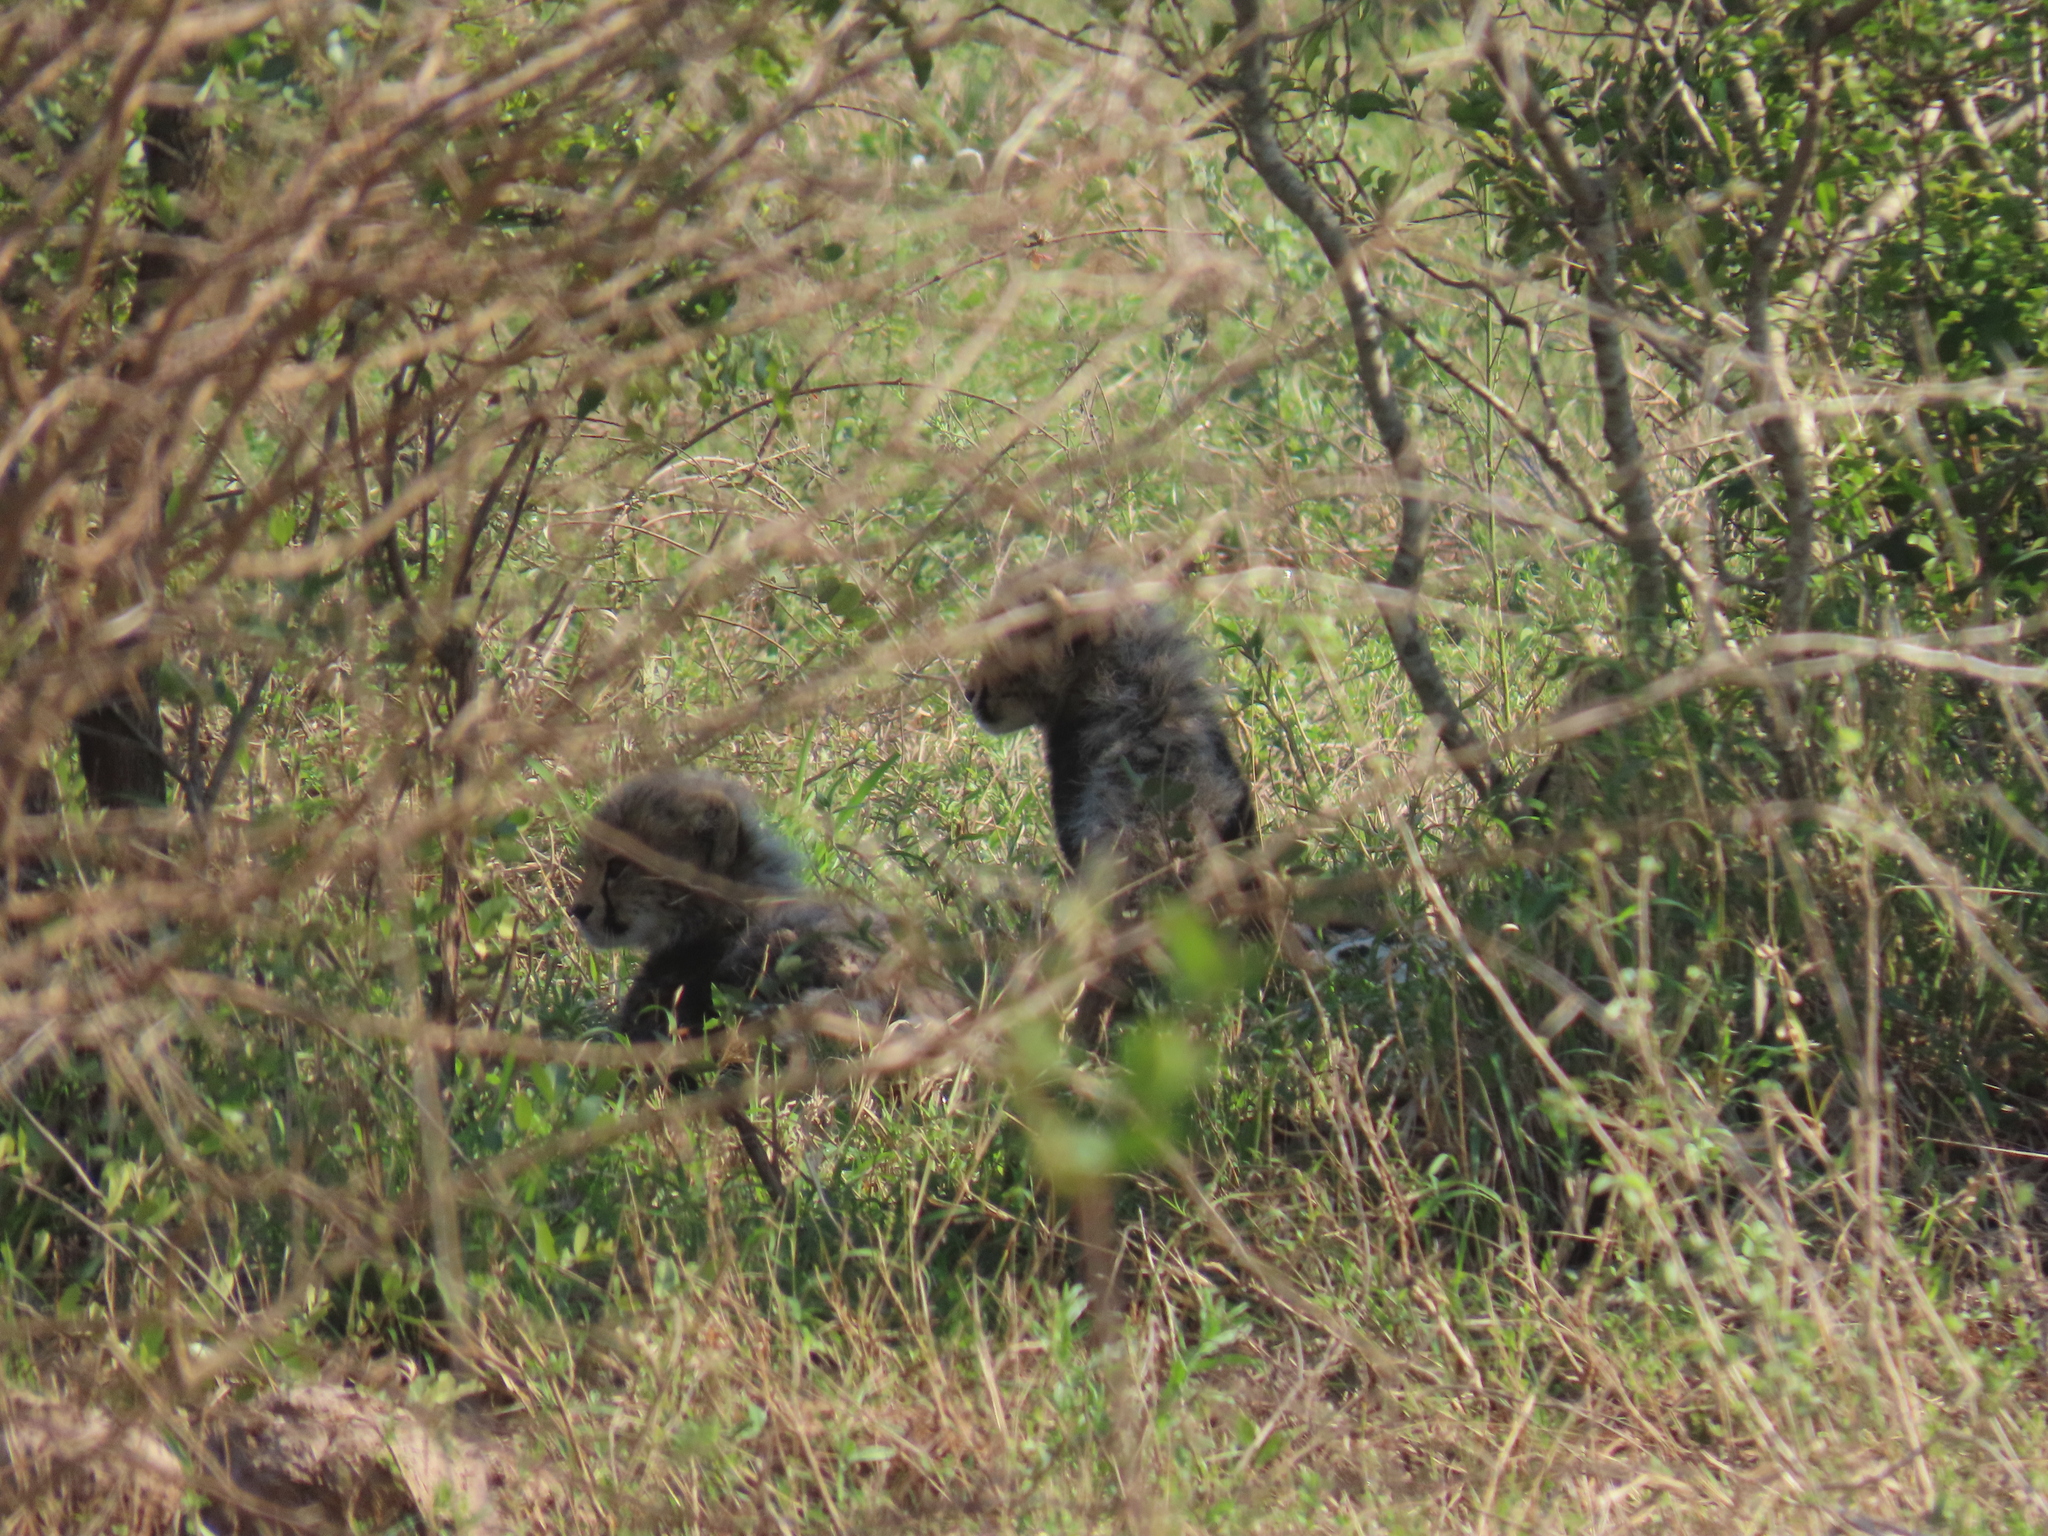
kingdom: Animalia
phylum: Chordata
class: Mammalia
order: Carnivora
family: Felidae
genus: Acinonyx
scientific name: Acinonyx jubatus
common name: Cheetah
